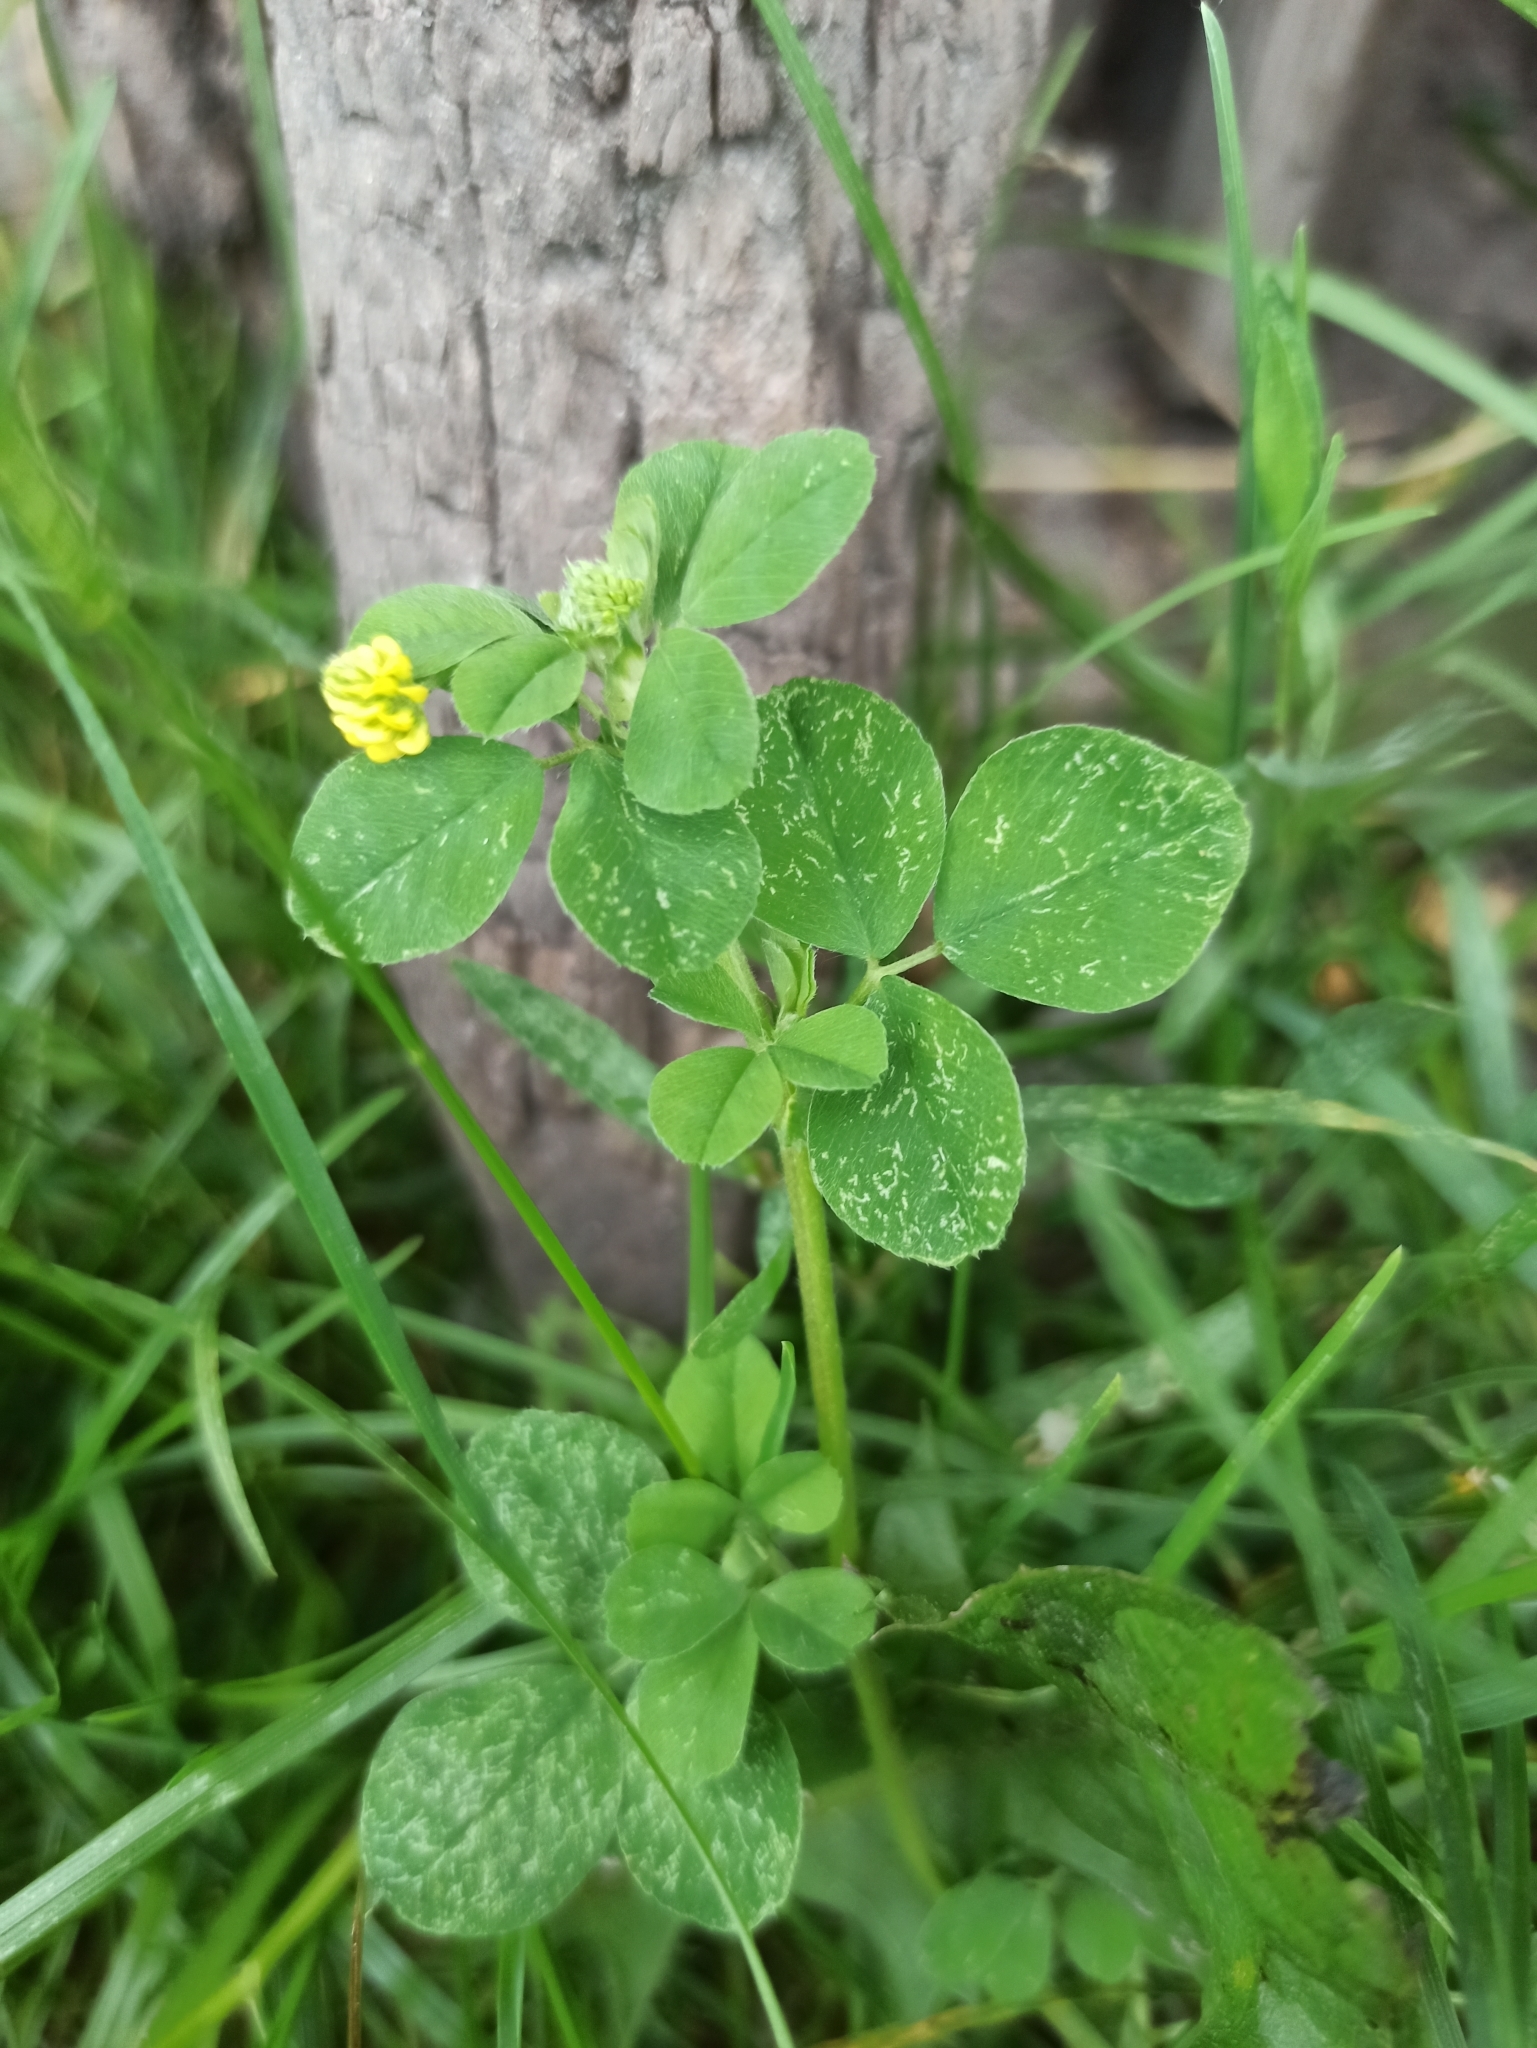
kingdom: Plantae
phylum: Tracheophyta
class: Magnoliopsida
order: Fabales
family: Fabaceae
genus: Medicago
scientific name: Medicago lupulina
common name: Black medick
